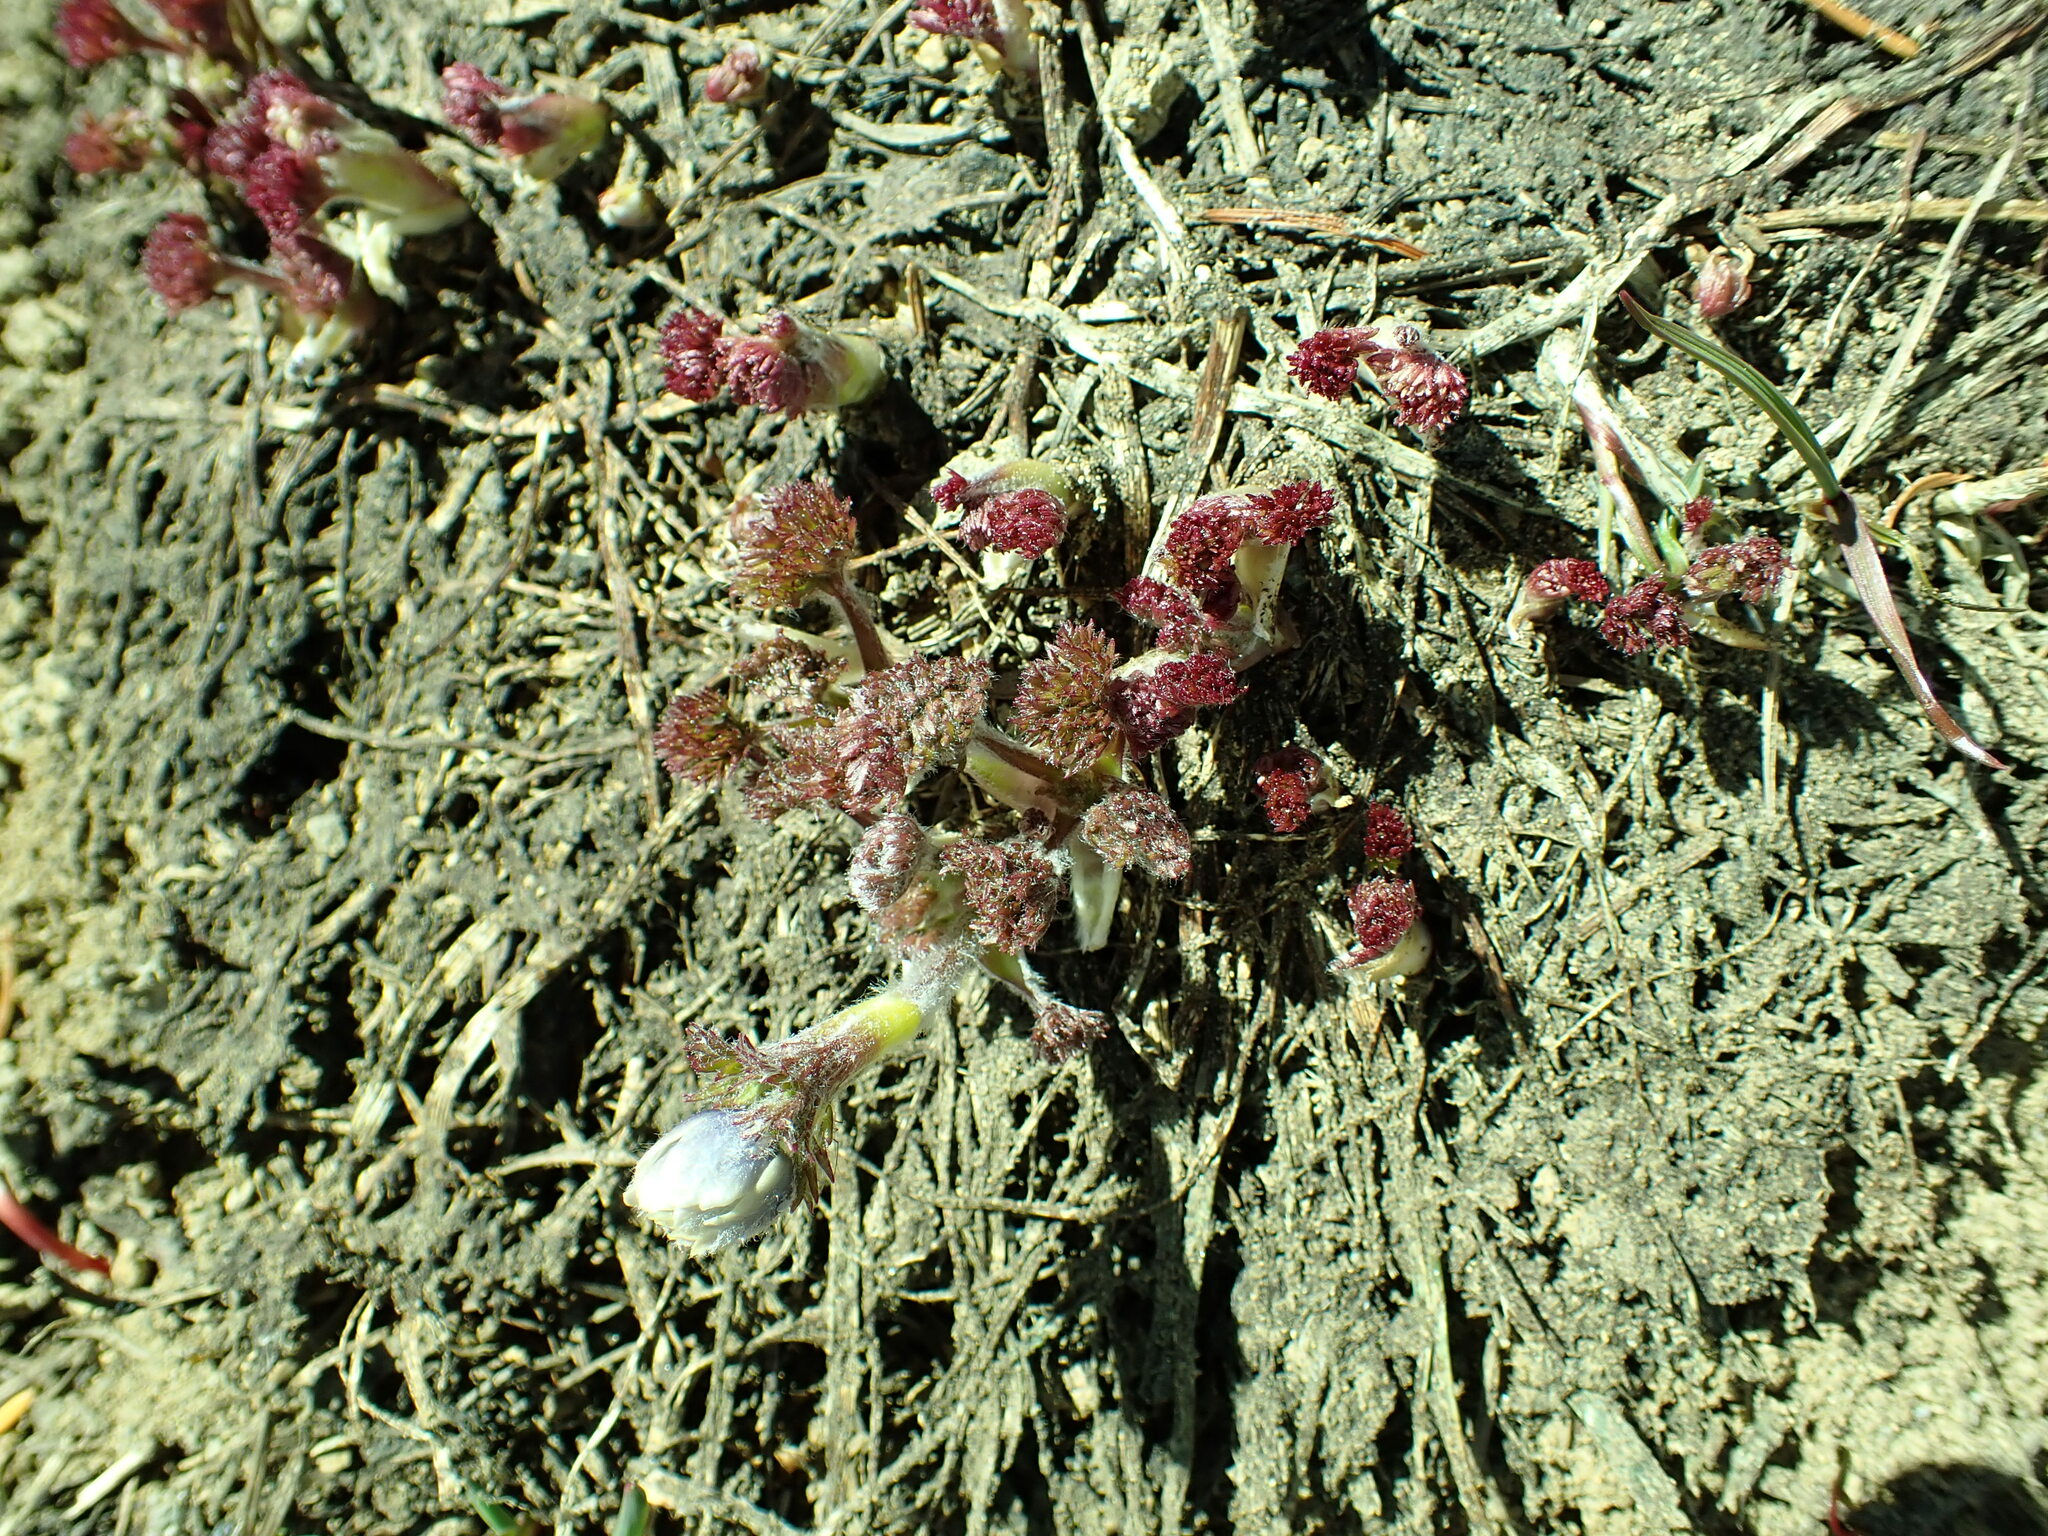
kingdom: Plantae
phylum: Tracheophyta
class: Magnoliopsida
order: Ranunculales
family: Ranunculaceae
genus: Anemone
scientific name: Anemone drummondii
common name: Drummond's anemone
